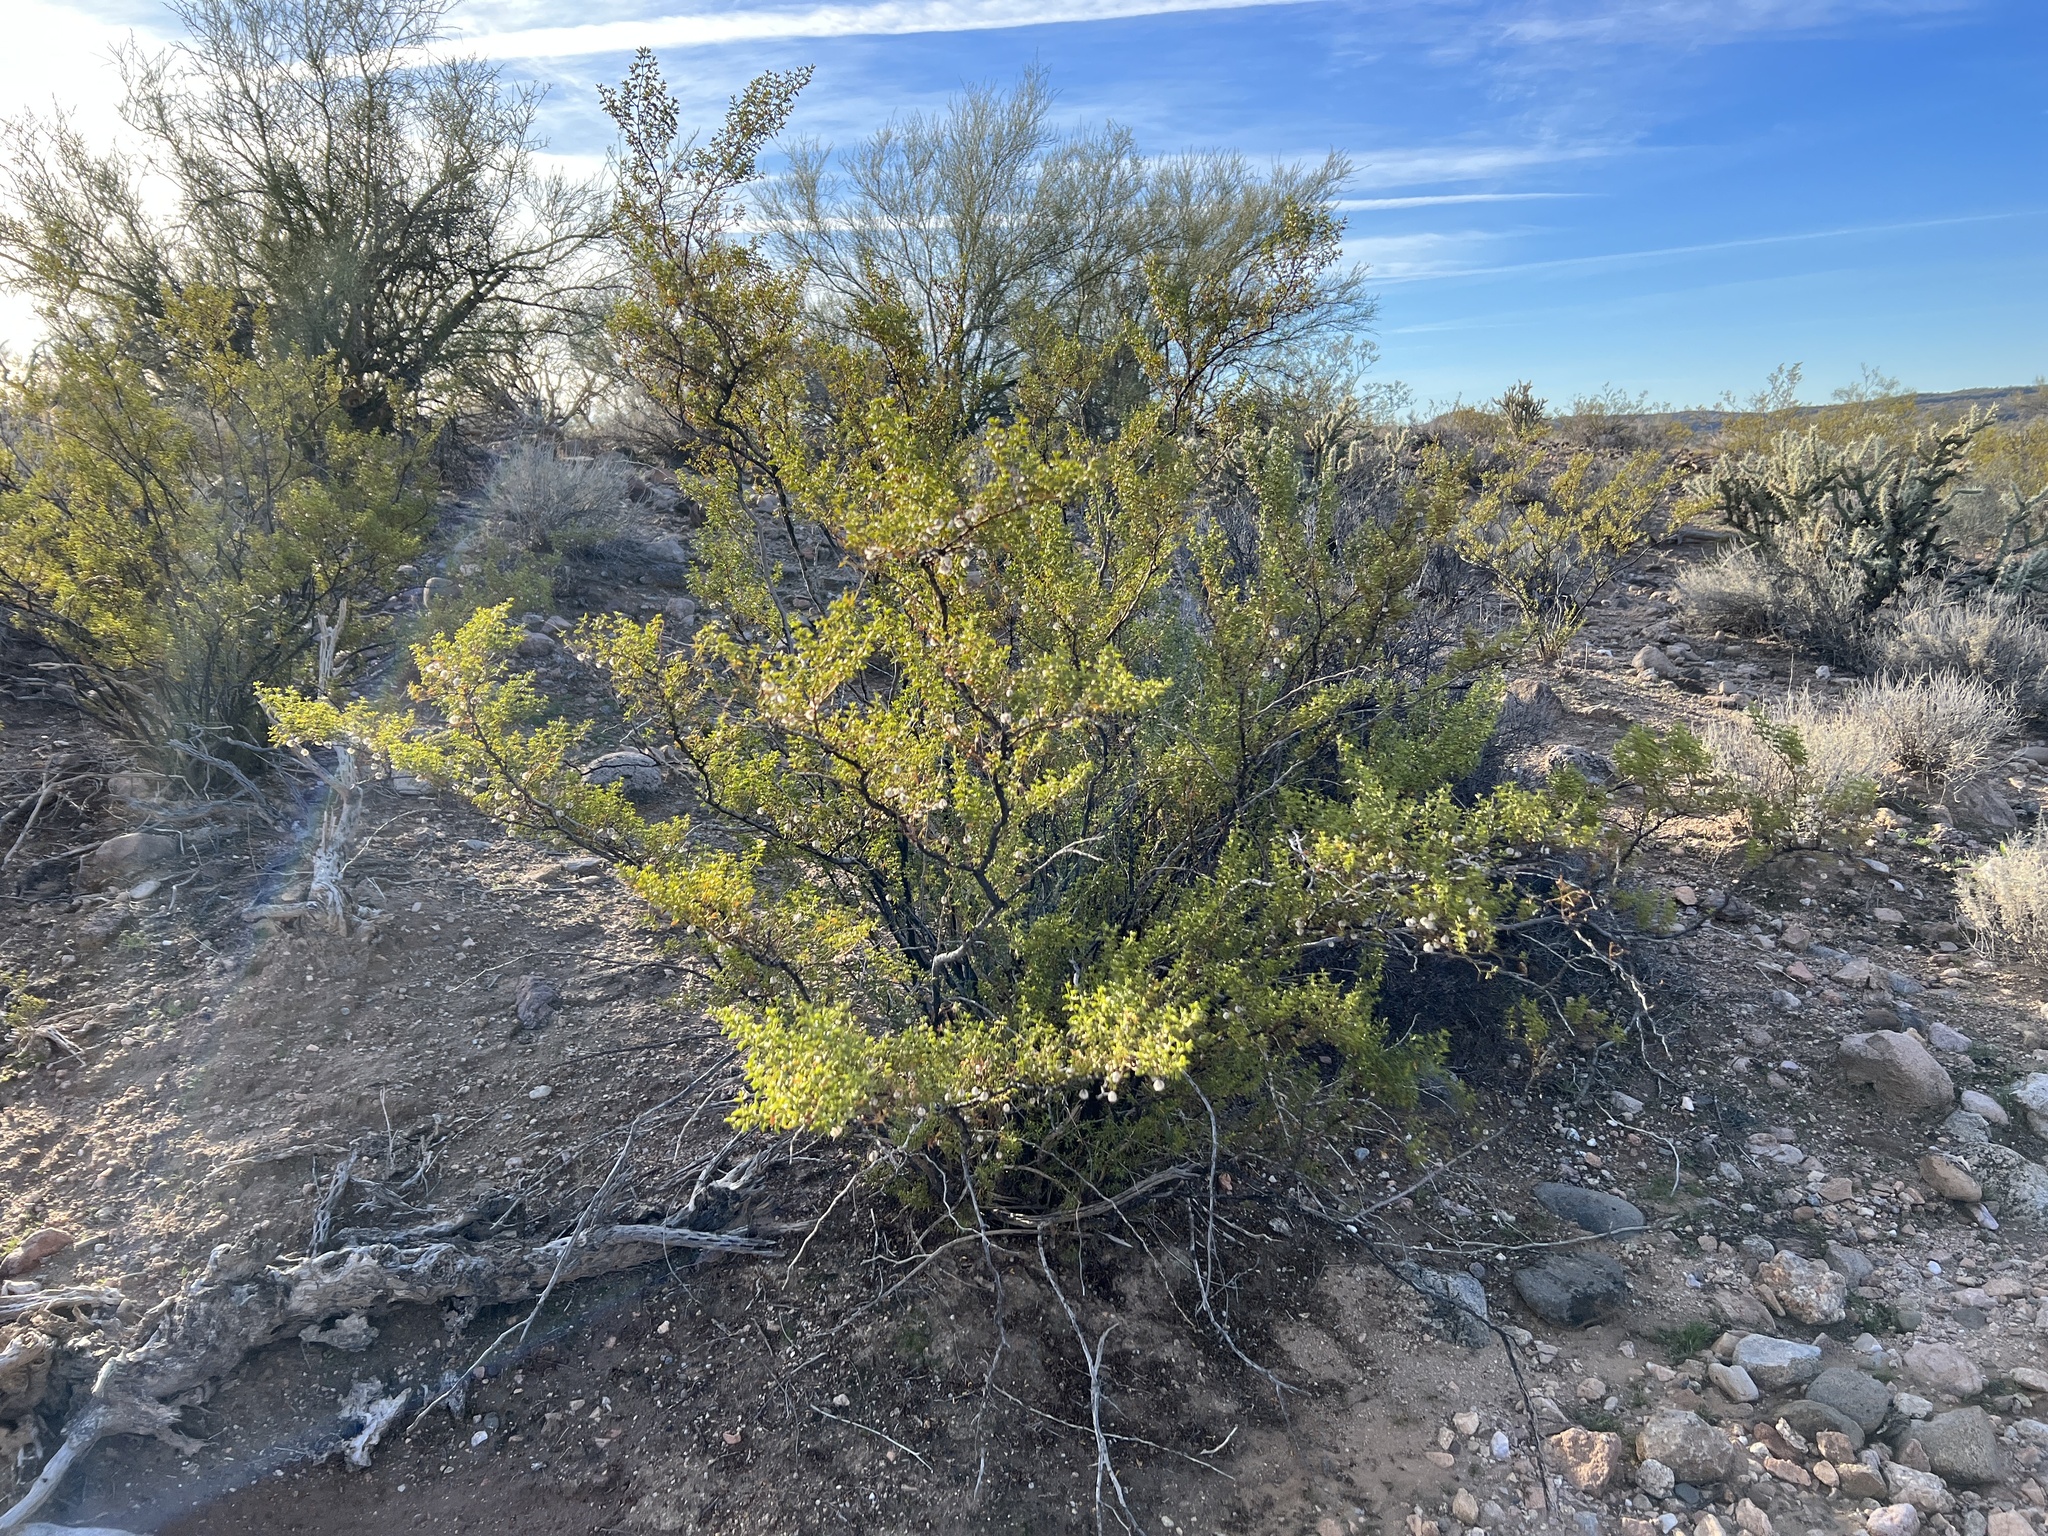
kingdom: Plantae
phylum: Tracheophyta
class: Magnoliopsida
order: Zygophyllales
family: Zygophyllaceae
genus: Larrea
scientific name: Larrea tridentata
